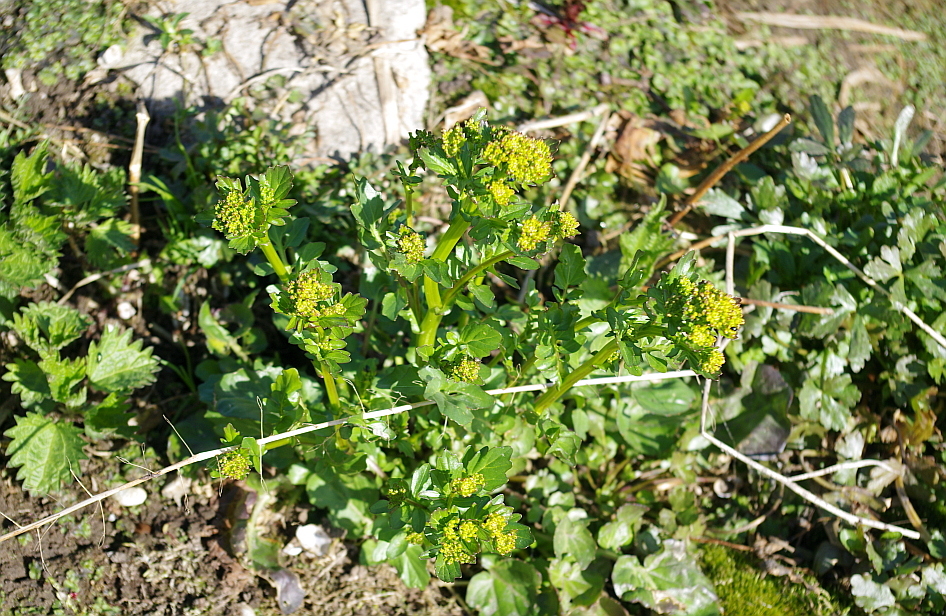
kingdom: Plantae
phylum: Tracheophyta
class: Magnoliopsida
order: Brassicales
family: Brassicaceae
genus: Barbarea
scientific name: Barbarea vulgaris
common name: Cressy-greens
